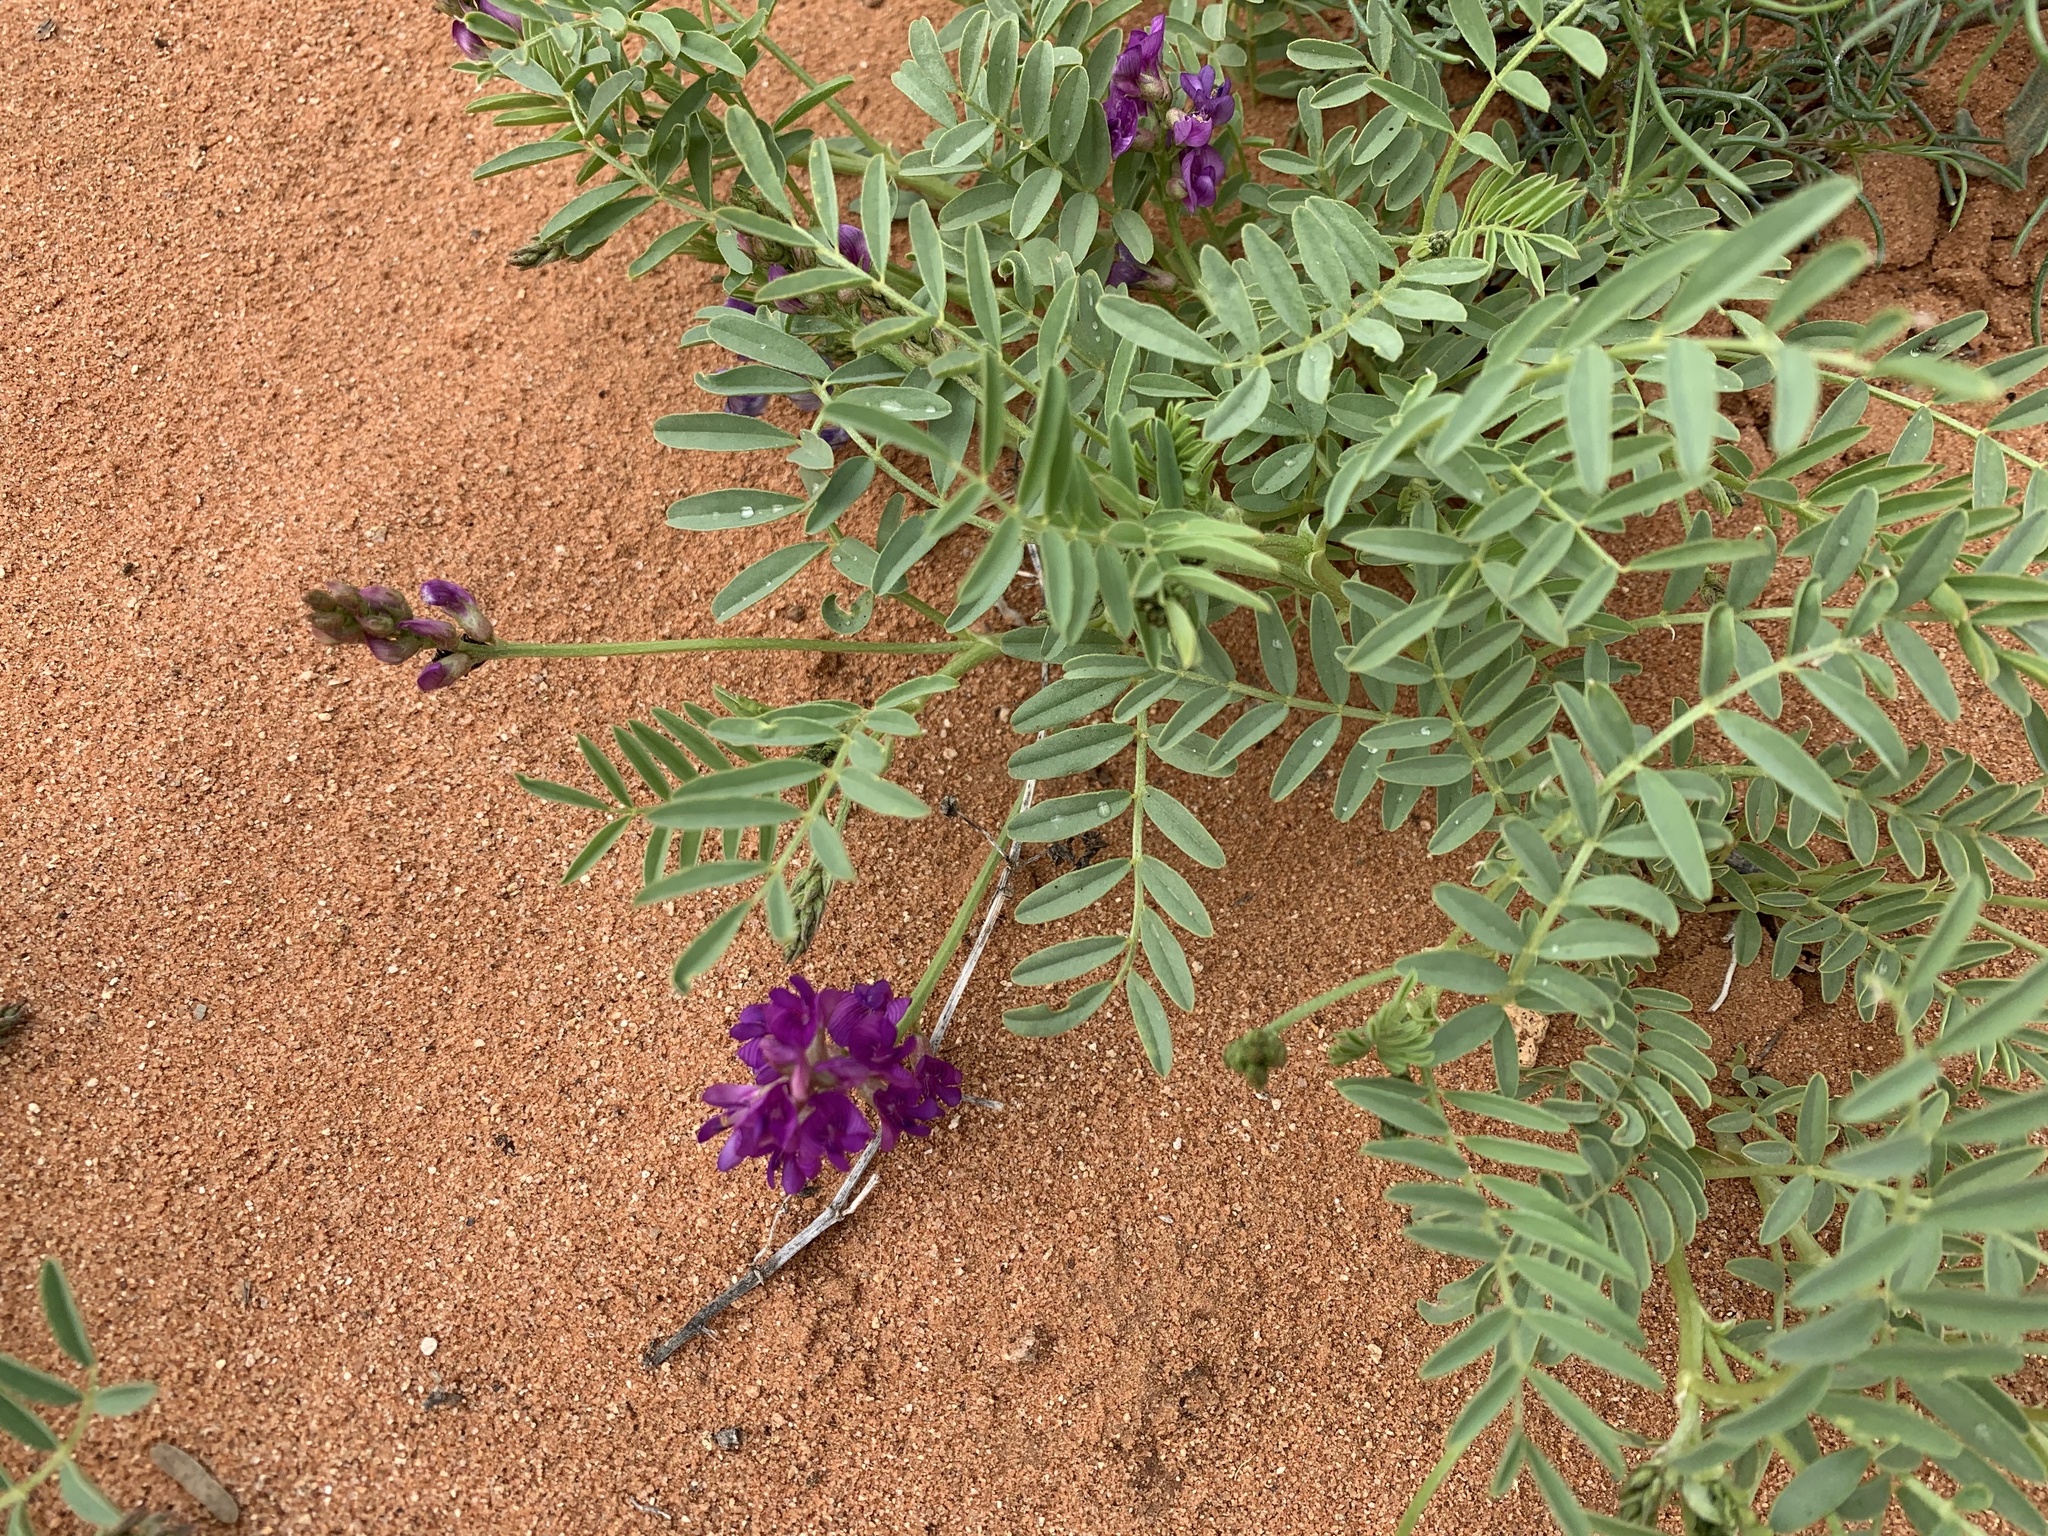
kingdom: Plantae
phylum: Tracheophyta
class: Magnoliopsida
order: Fabales
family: Fabaceae
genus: Astragalus
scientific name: Astragalus wootonii
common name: Wooton's milk-vetch
